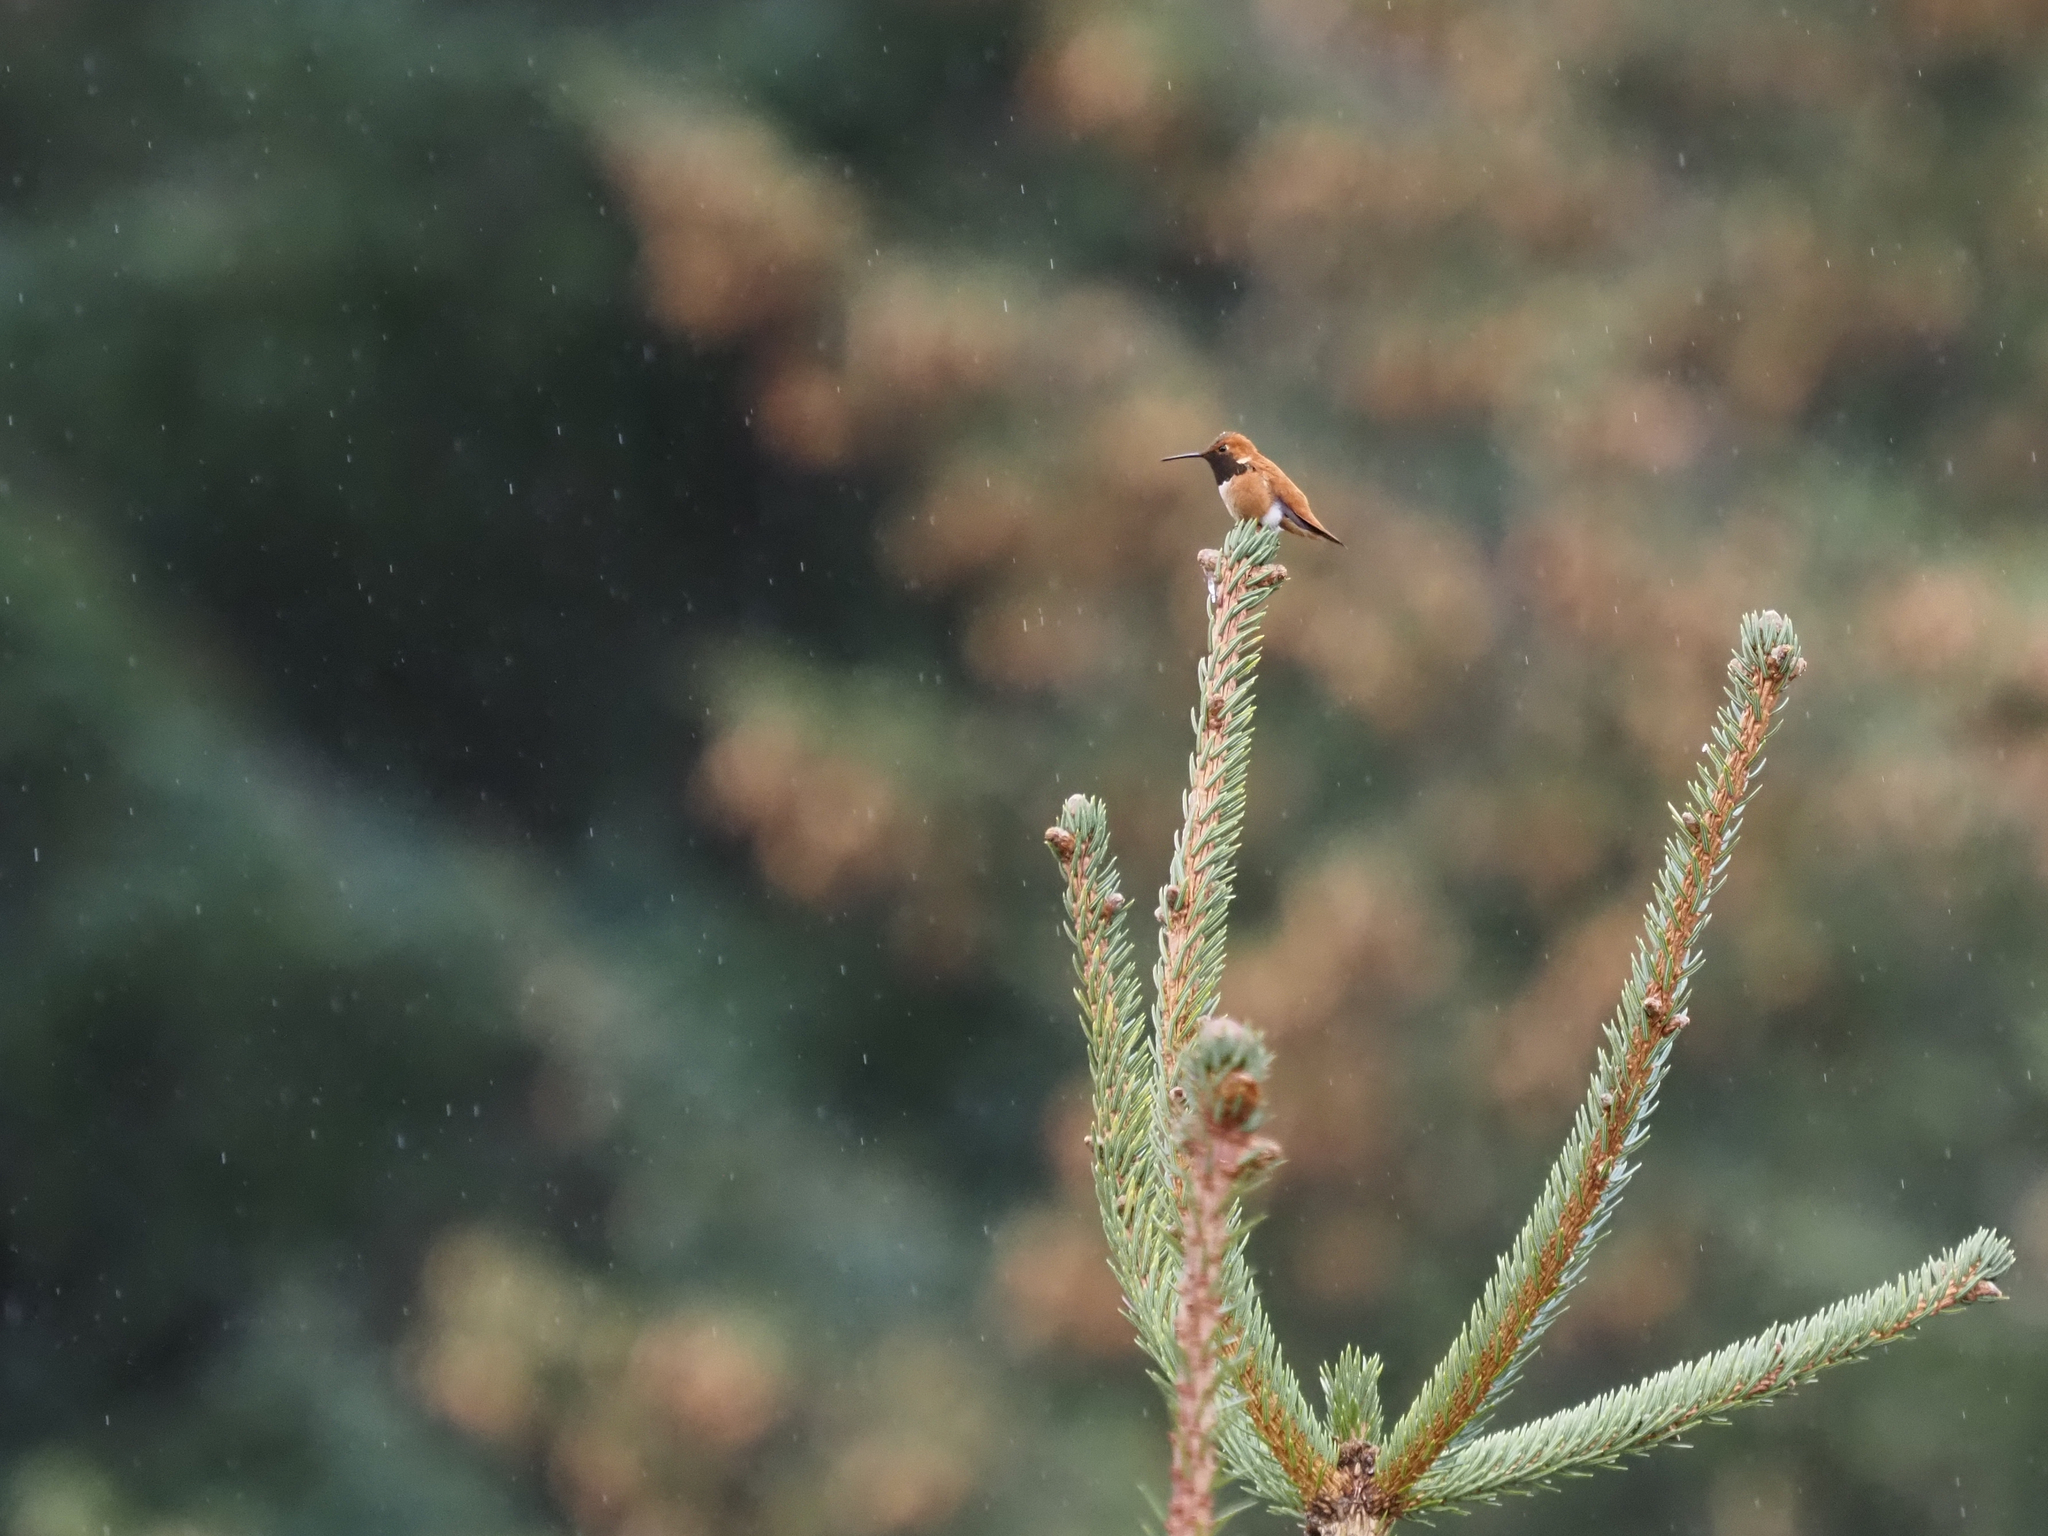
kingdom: Animalia
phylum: Chordata
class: Aves
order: Apodiformes
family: Trochilidae
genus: Selasphorus
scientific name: Selasphorus rufus
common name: Rufous hummingbird
